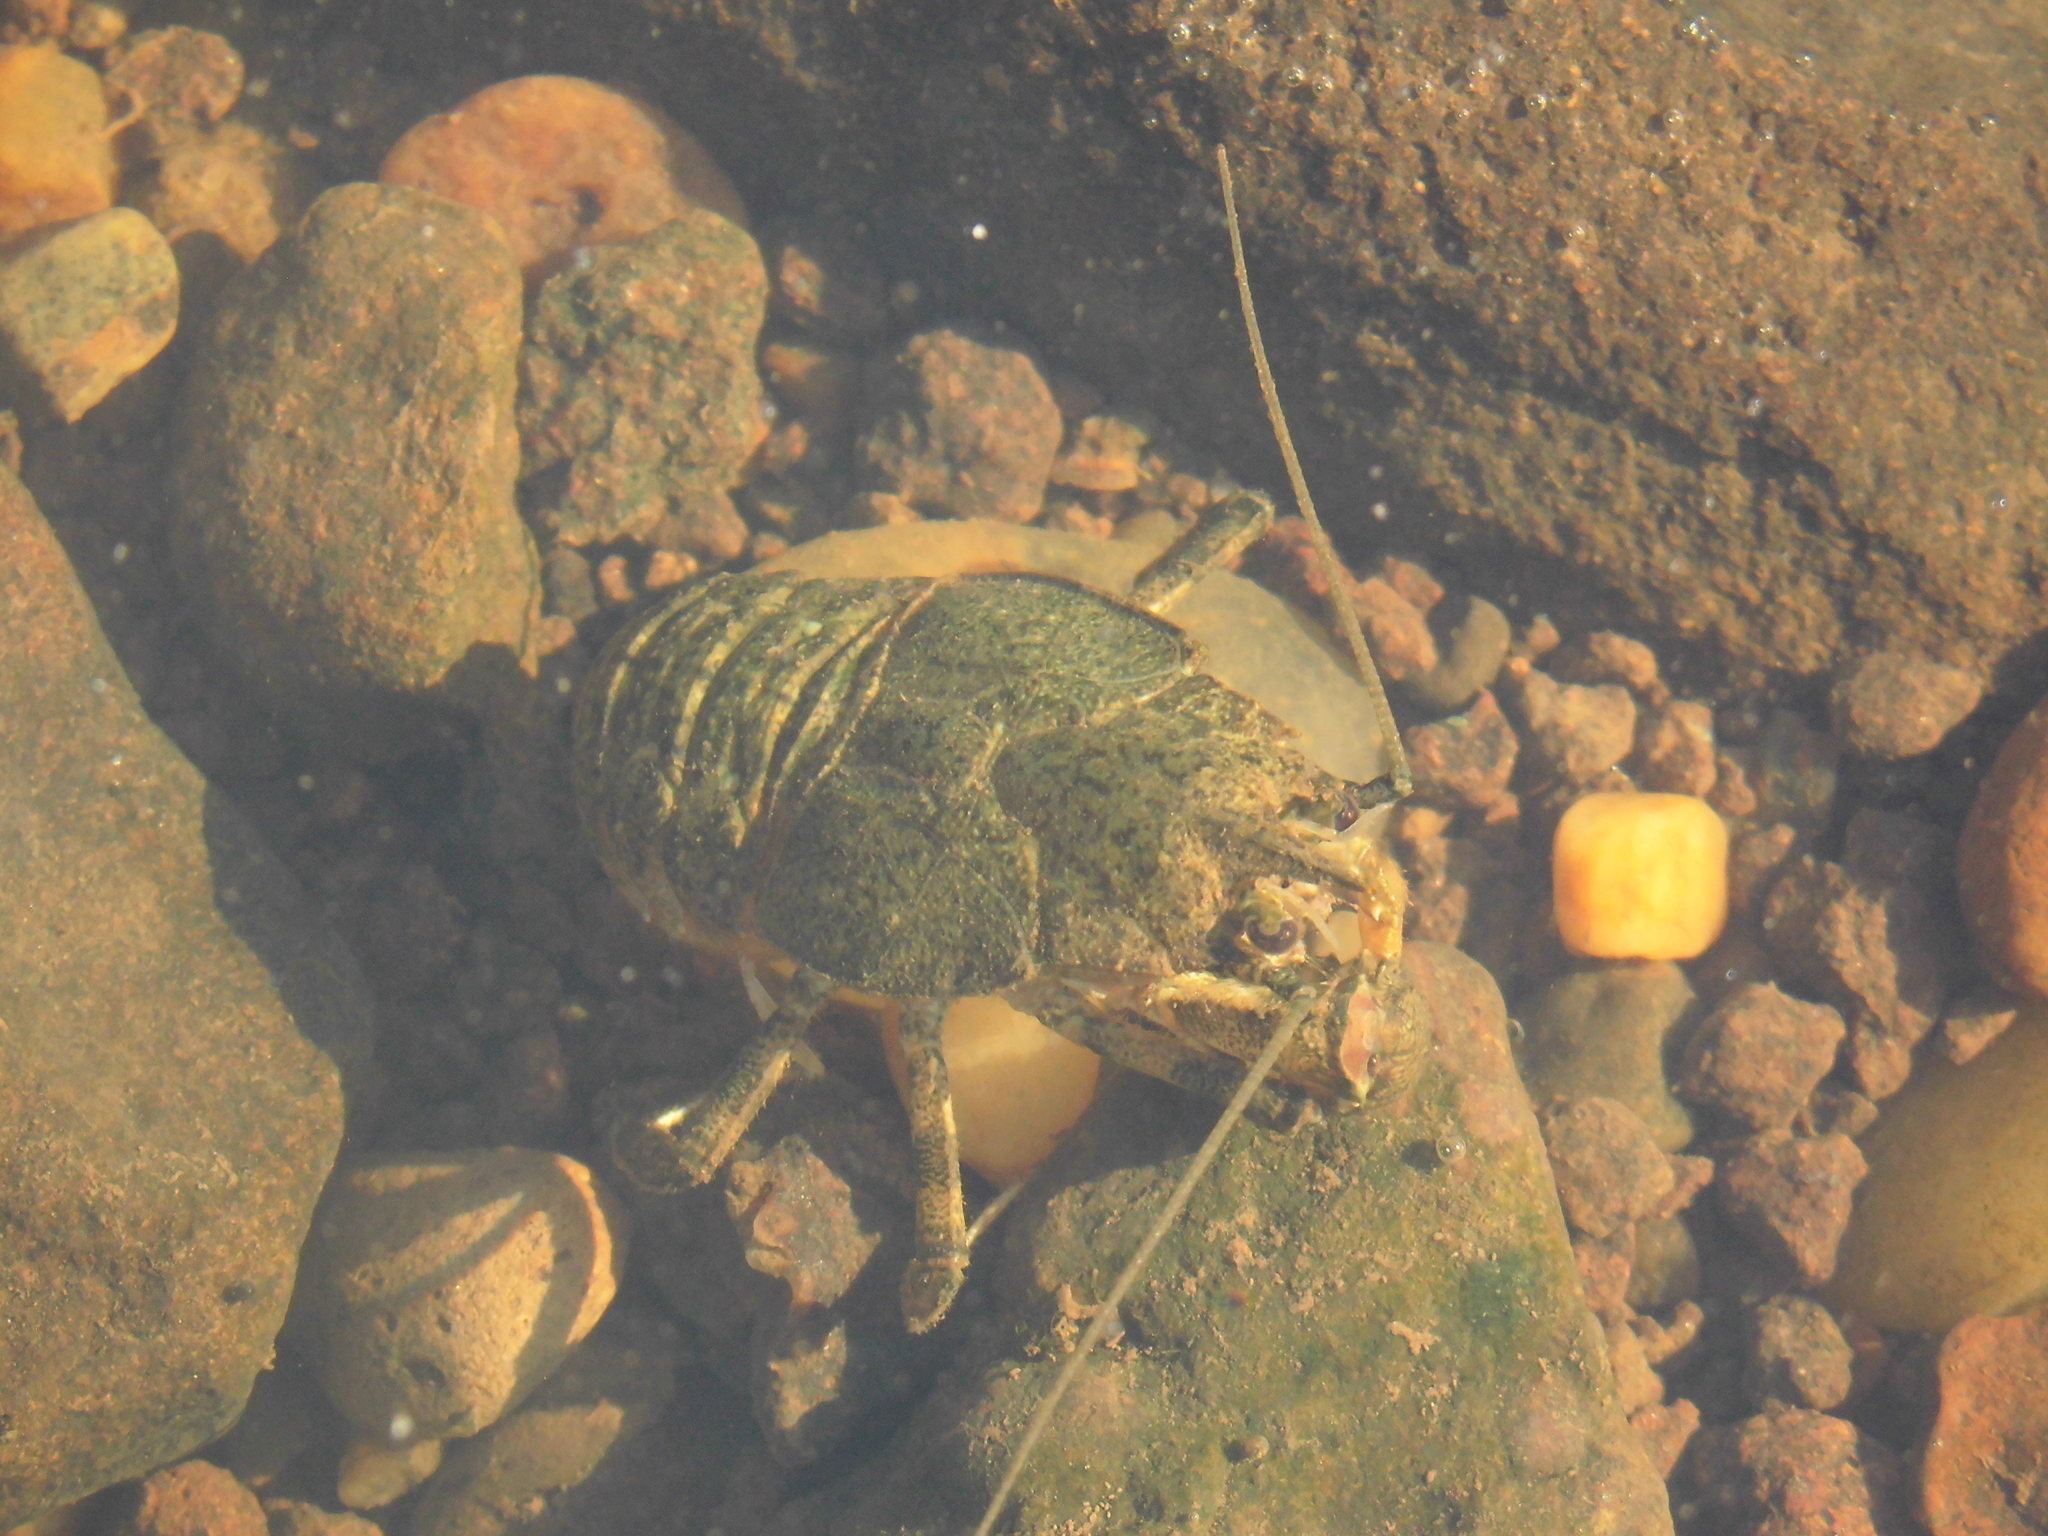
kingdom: Animalia
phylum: Arthropoda
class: Malacostraca
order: Decapoda
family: Aeglidae
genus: Aegla
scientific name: Aegla platensis
